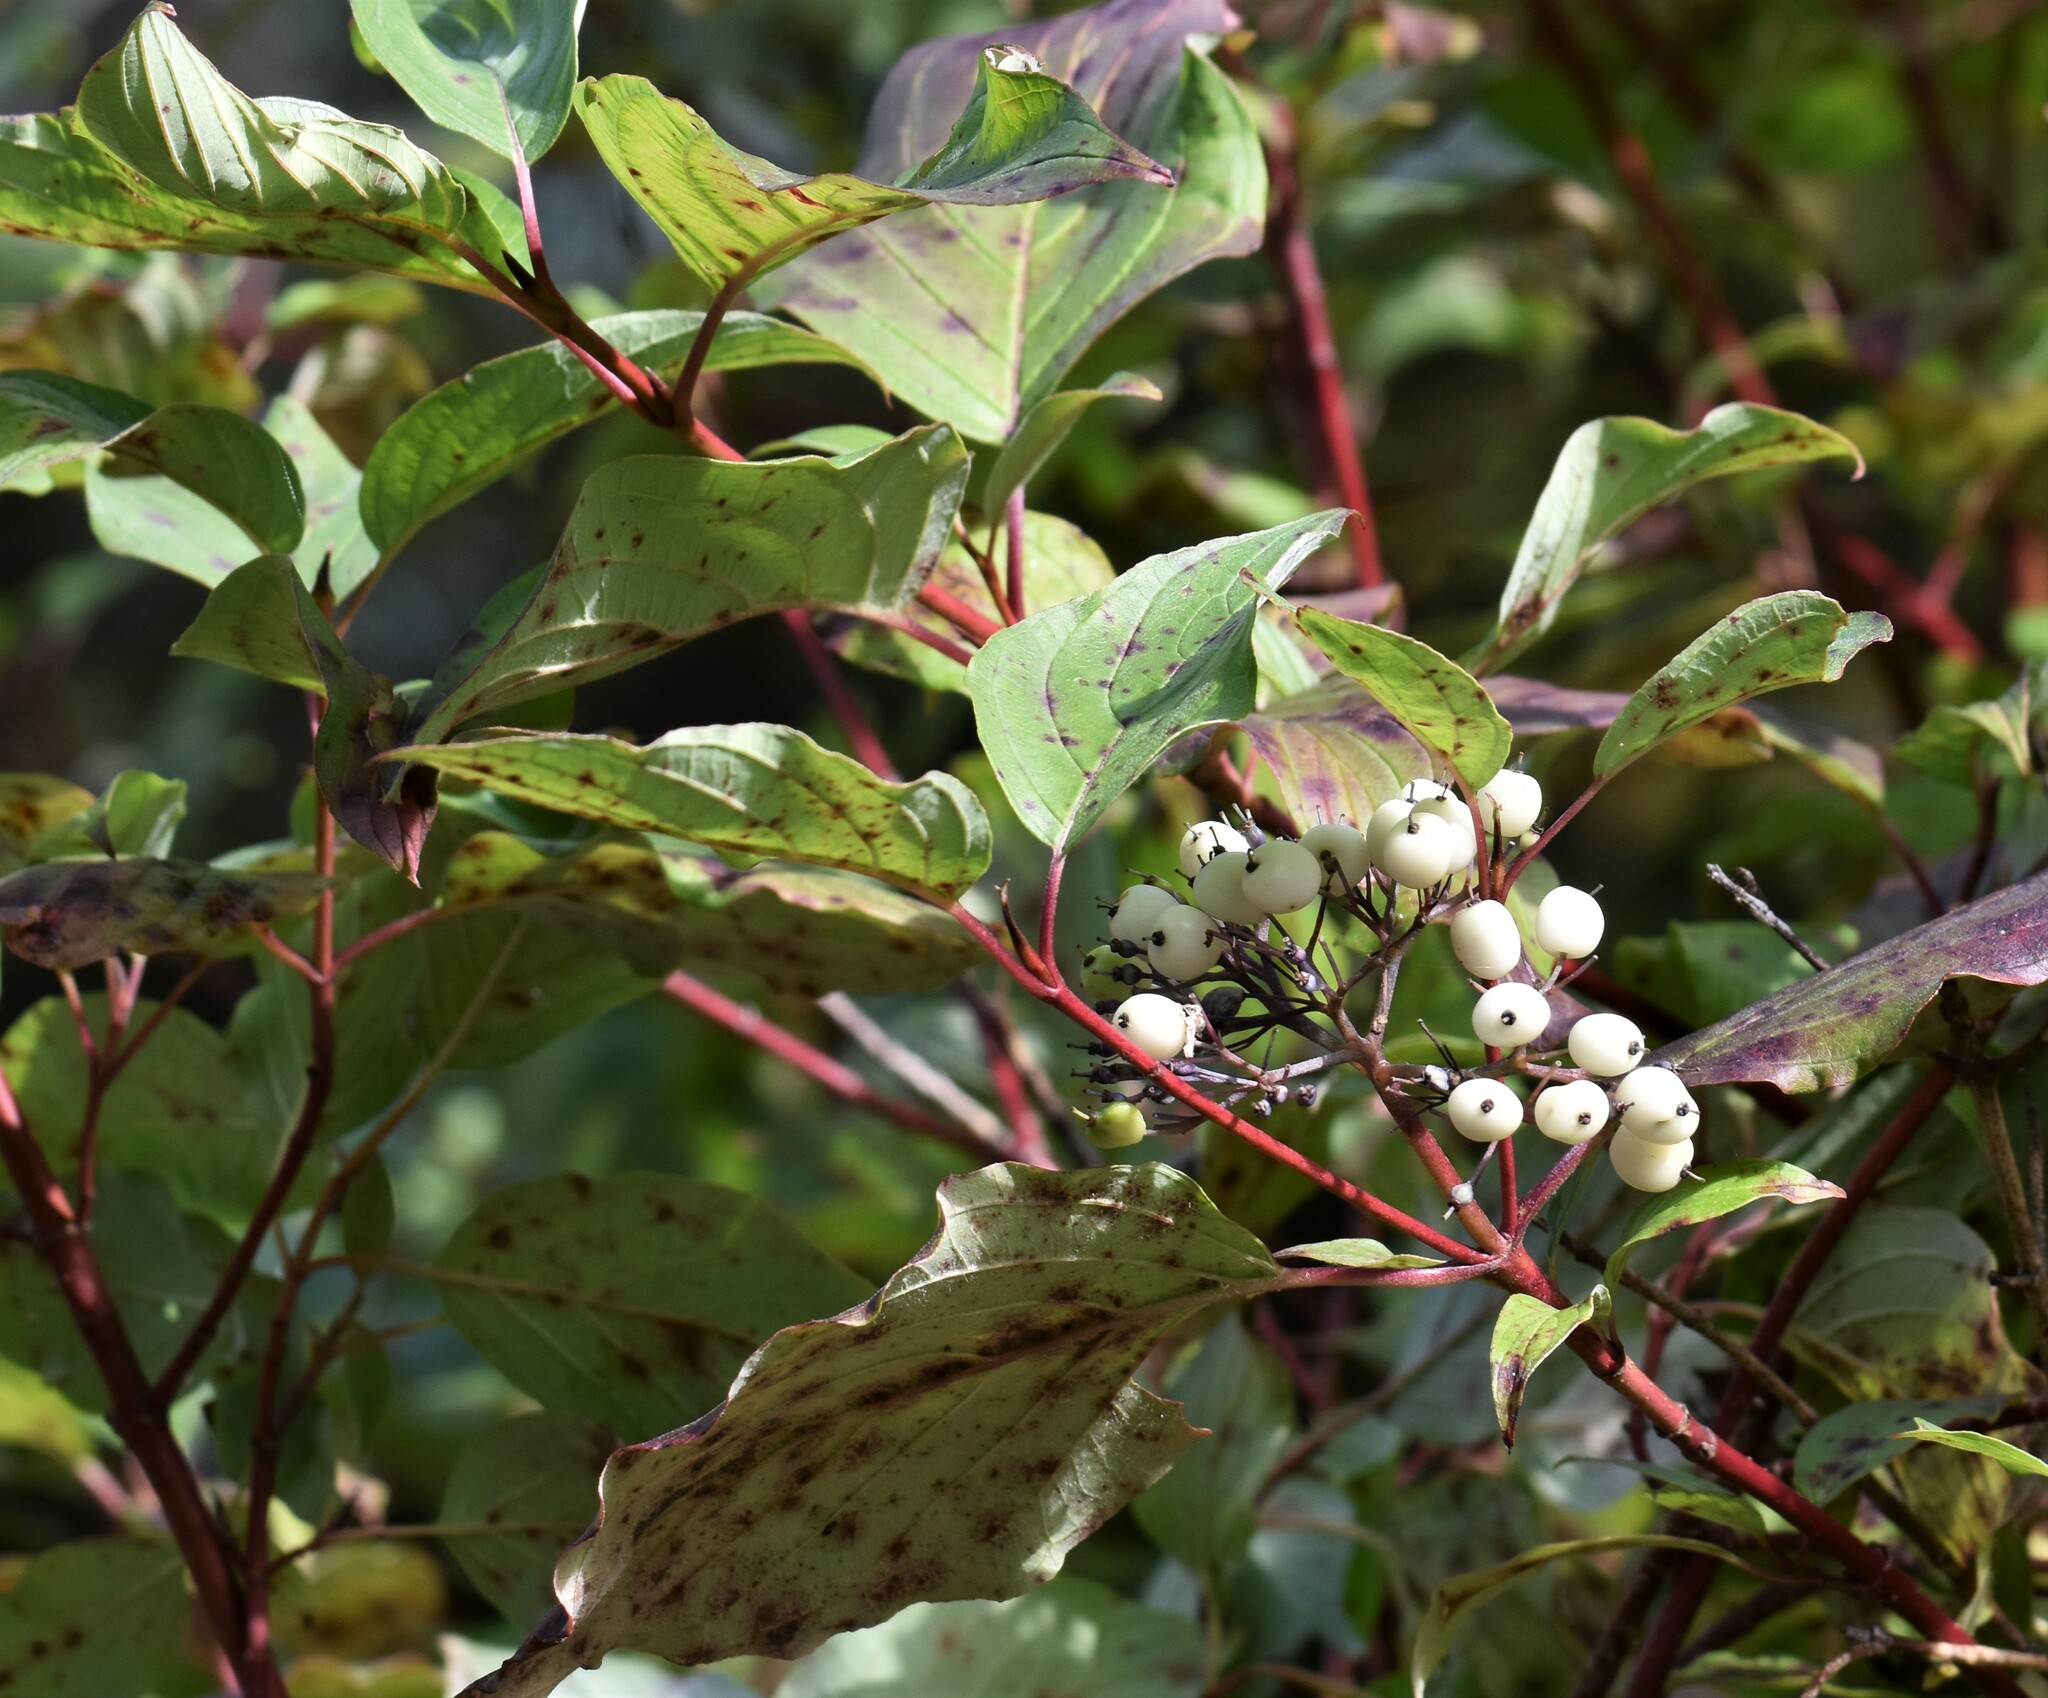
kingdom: Plantae
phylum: Tracheophyta
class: Magnoliopsida
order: Cornales
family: Cornaceae
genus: Cornus
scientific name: Cornus sericea
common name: Red-osier dogwood
